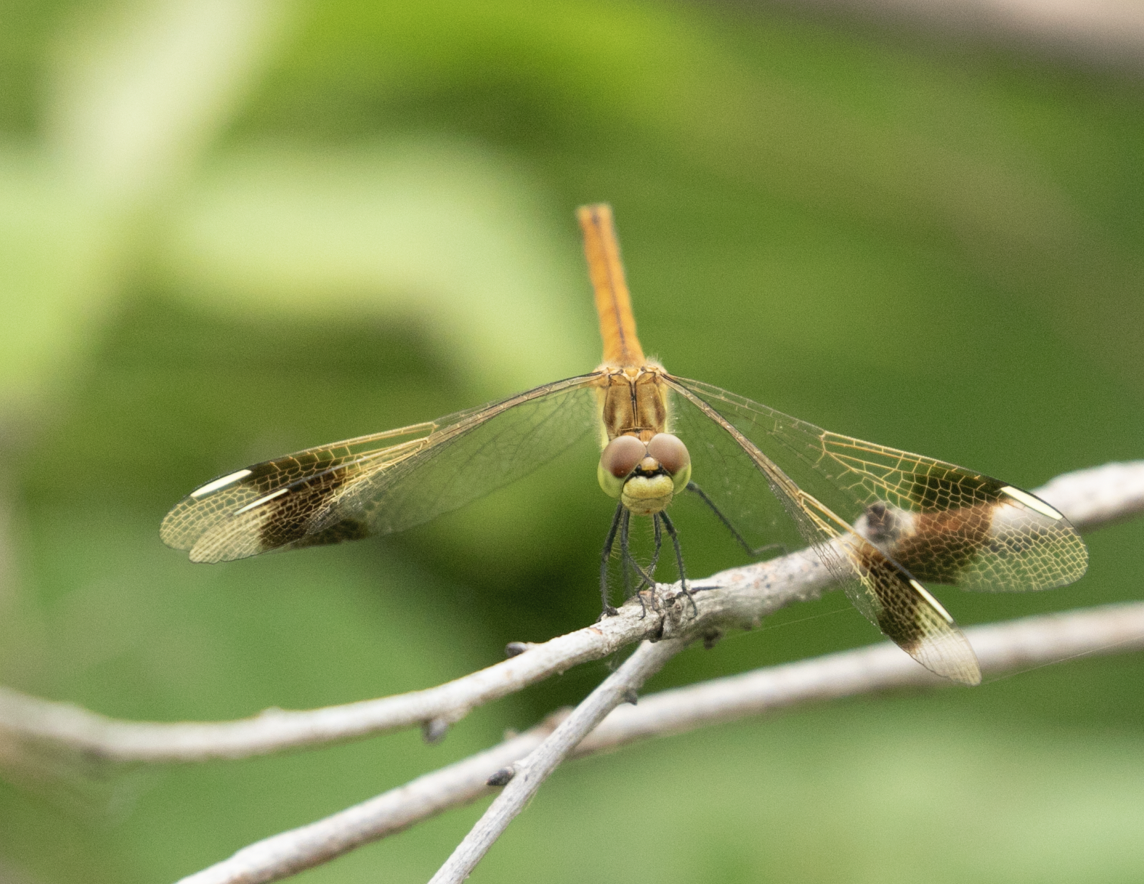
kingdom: Animalia
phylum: Arthropoda
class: Insecta
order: Odonata
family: Libellulidae
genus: Sympetrum
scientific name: Sympetrum pedemontanum
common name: Banded darter
